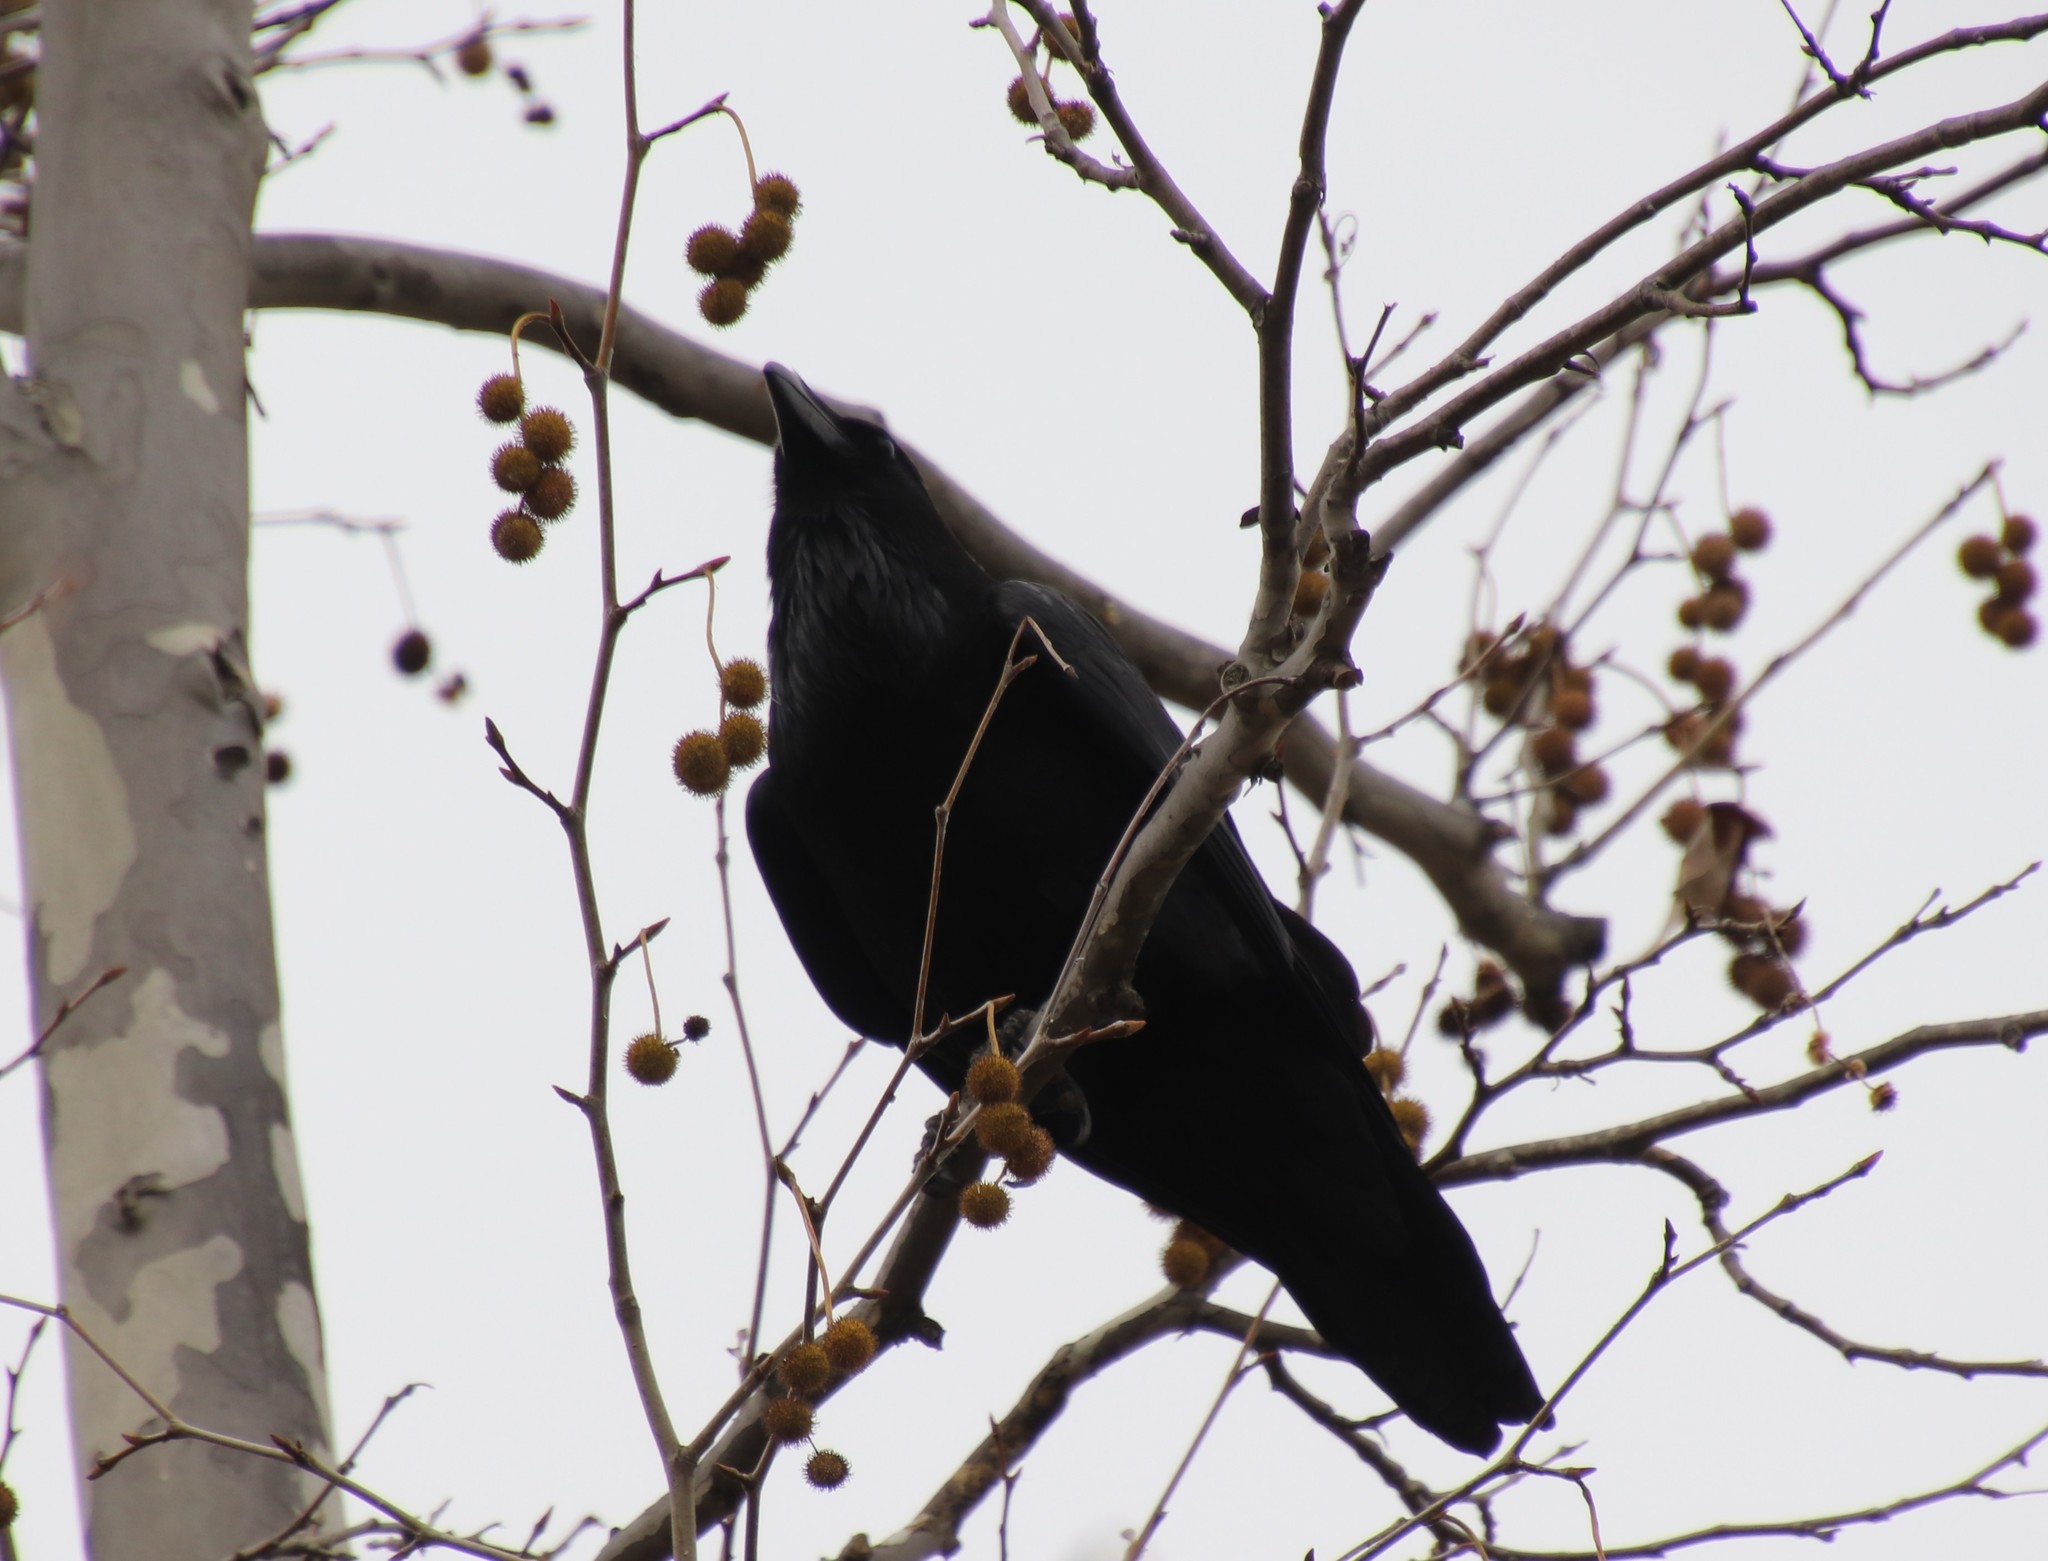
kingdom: Animalia
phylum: Chordata
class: Aves
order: Passeriformes
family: Corvidae
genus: Corvus
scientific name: Corvus corax
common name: Common raven
